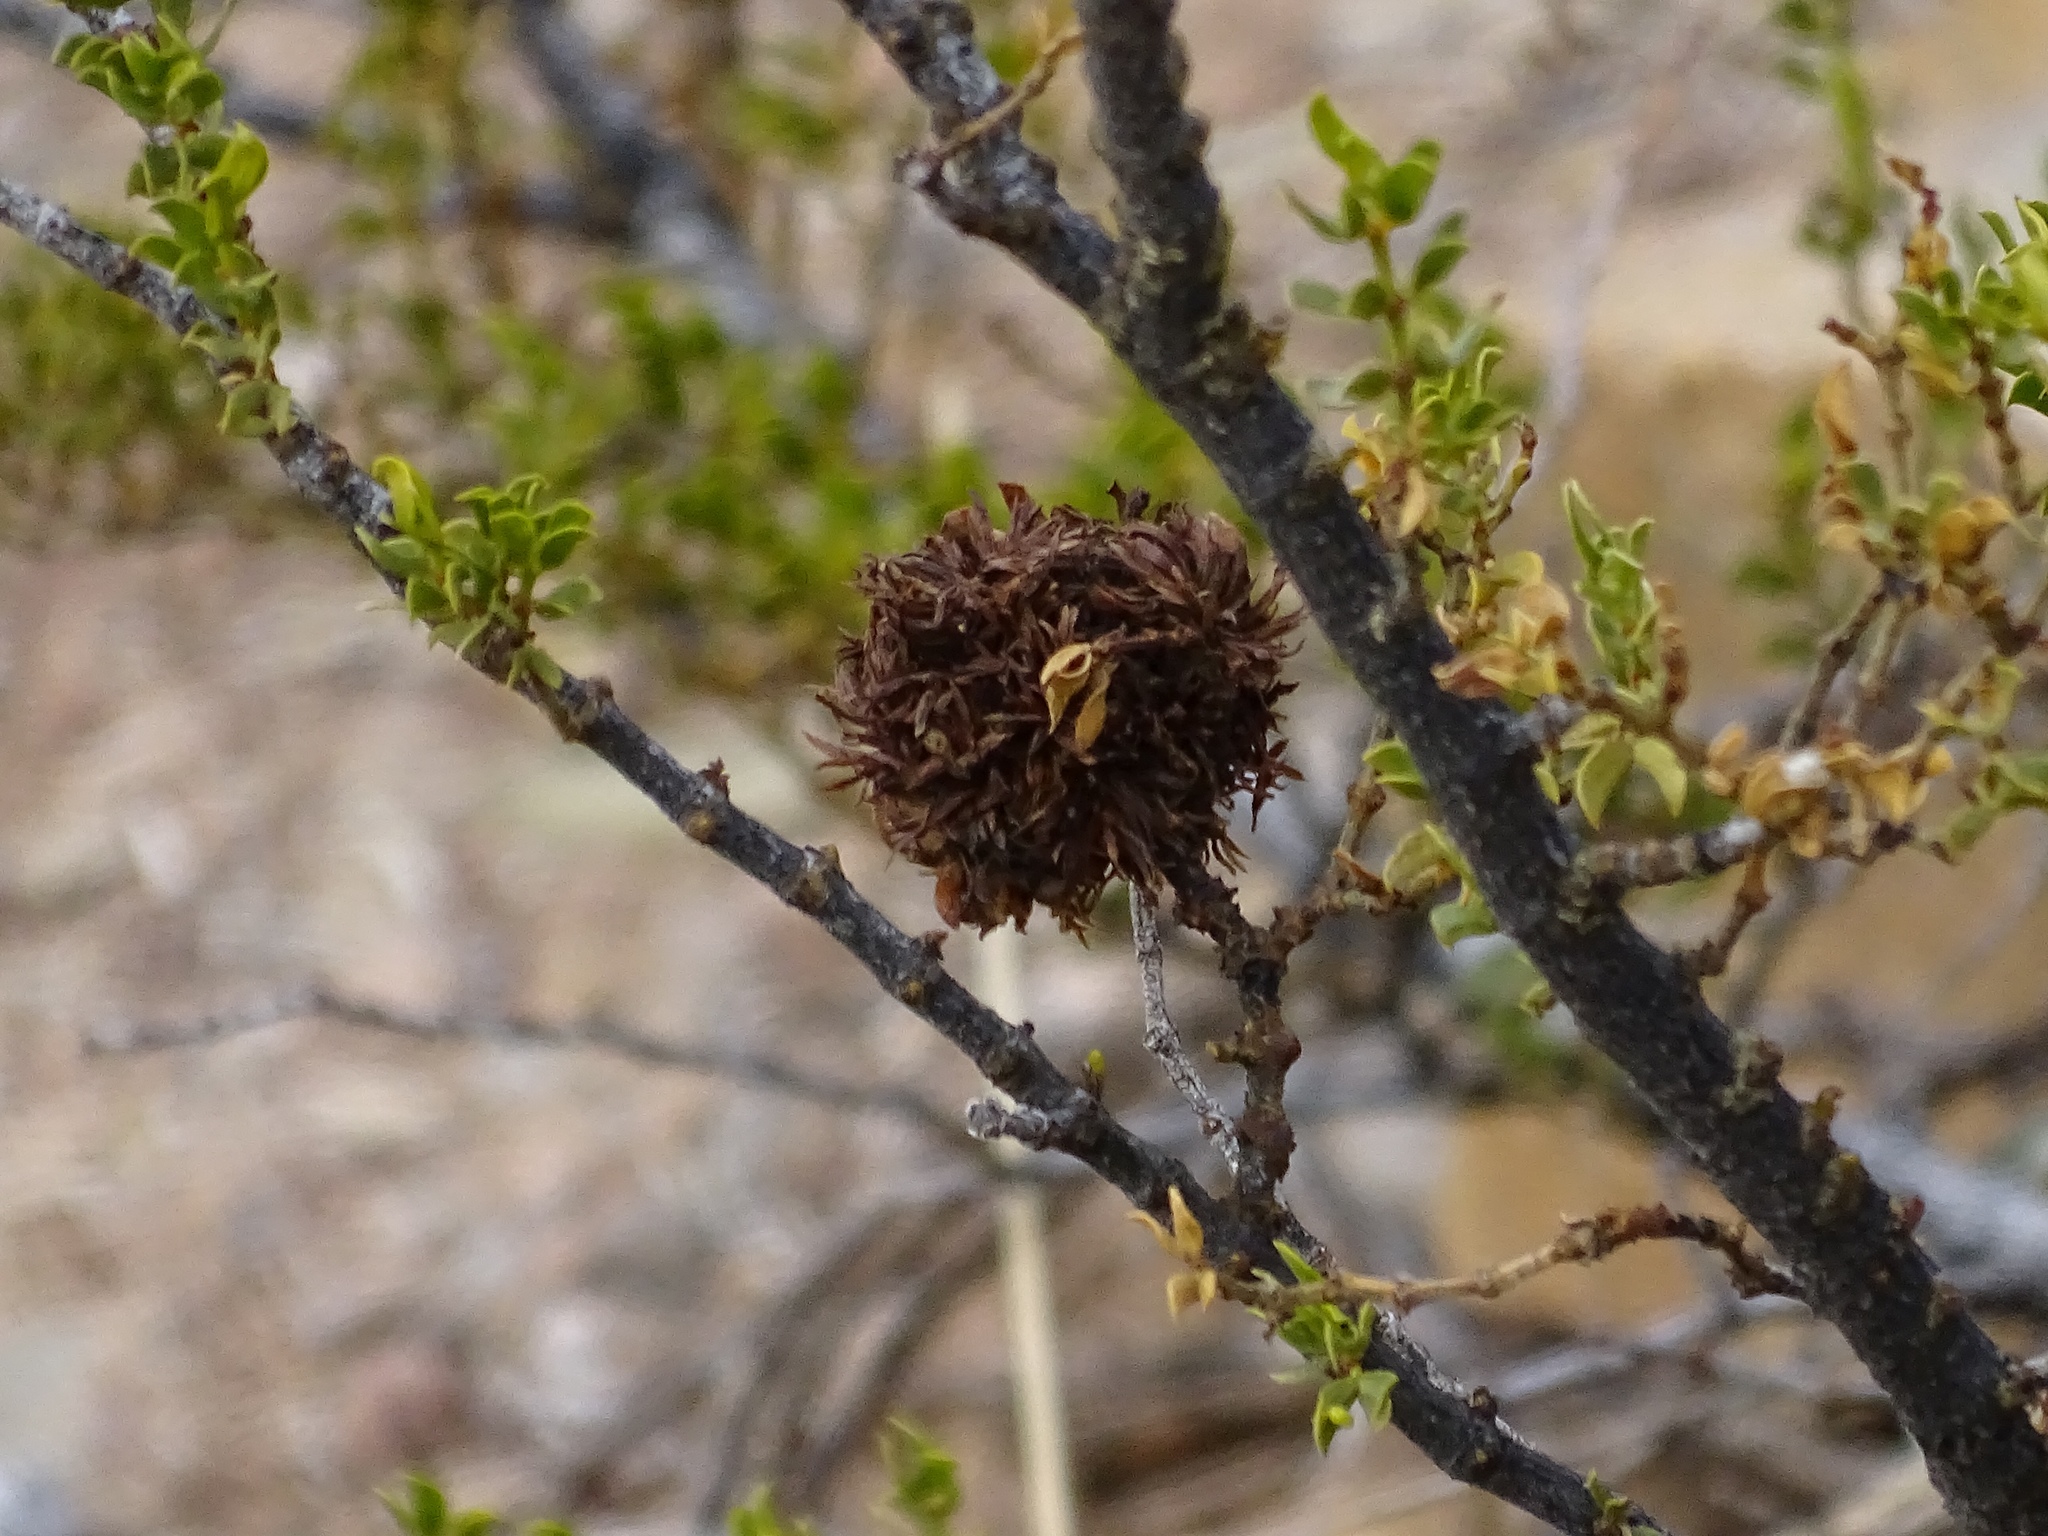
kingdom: Animalia
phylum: Arthropoda
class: Insecta
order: Diptera
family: Cecidomyiidae
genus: Asphondylia
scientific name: Asphondylia auripila
